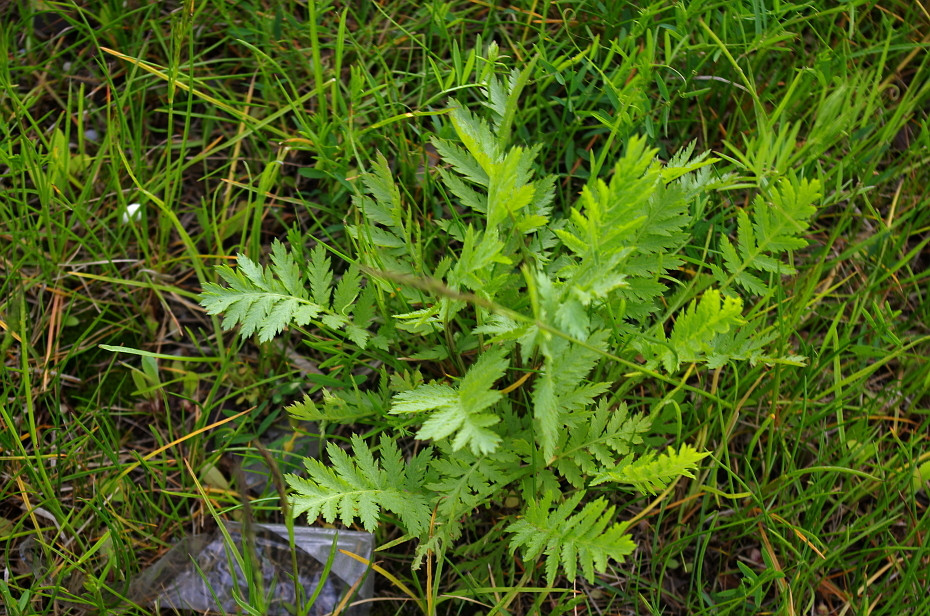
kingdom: Plantae
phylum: Tracheophyta
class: Magnoliopsida
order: Asterales
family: Asteraceae
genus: Tanacetum
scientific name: Tanacetum vulgare
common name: Common tansy
